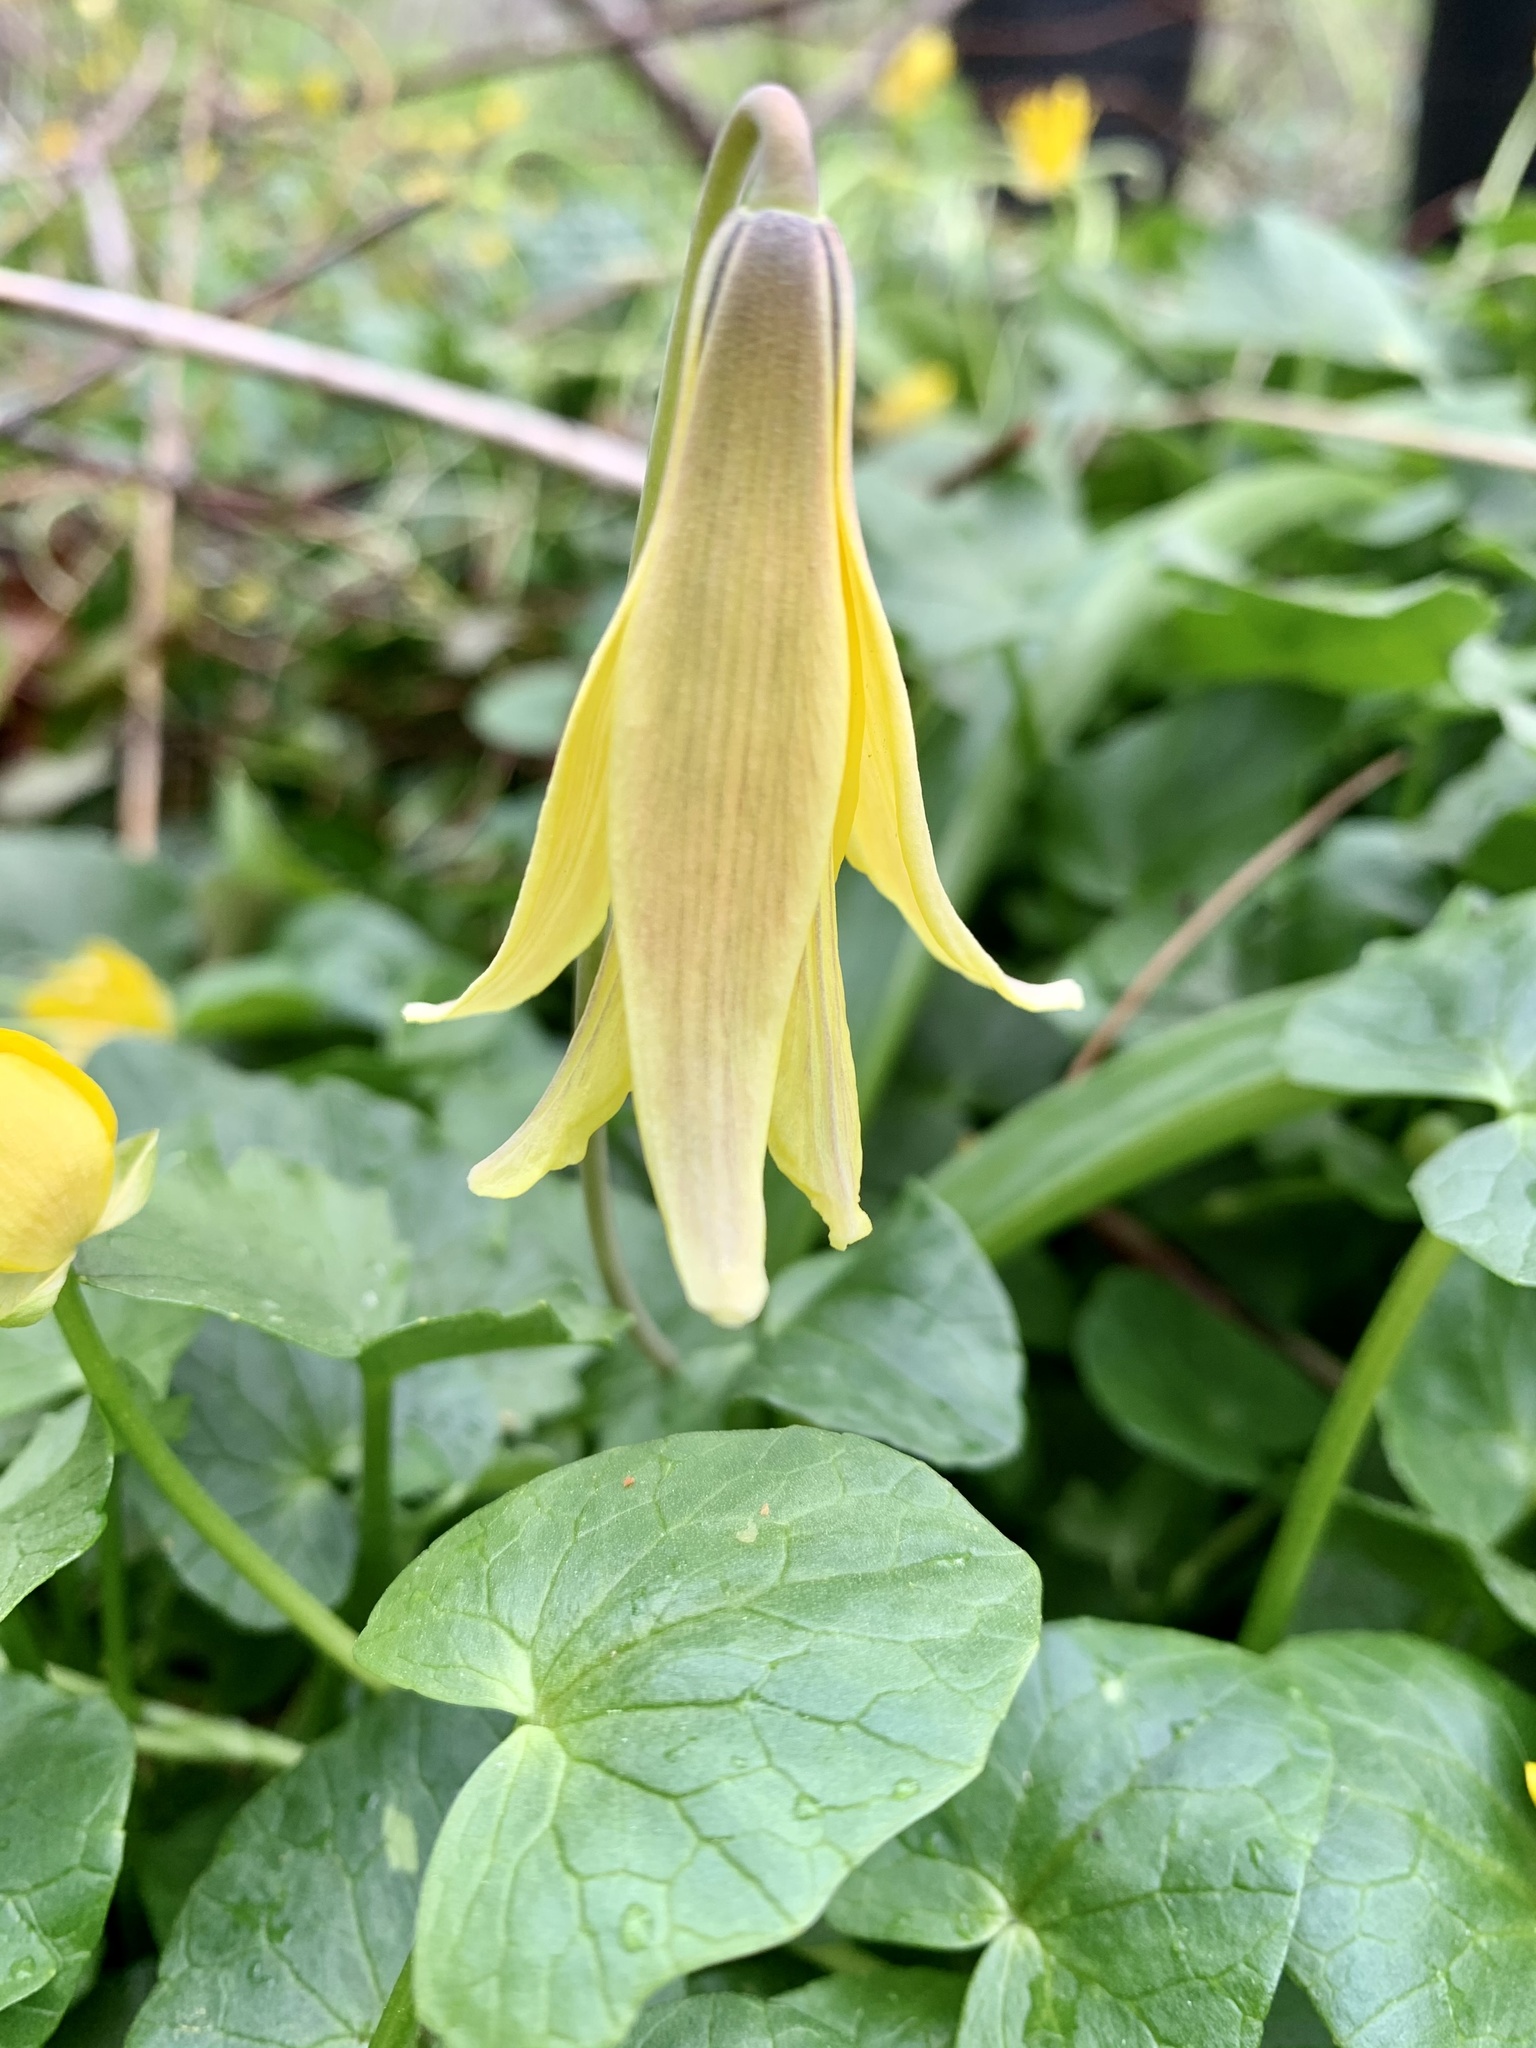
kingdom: Plantae
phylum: Tracheophyta
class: Liliopsida
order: Liliales
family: Liliaceae
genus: Erythronium
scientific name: Erythronium americanum
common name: Yellow adder's-tongue
